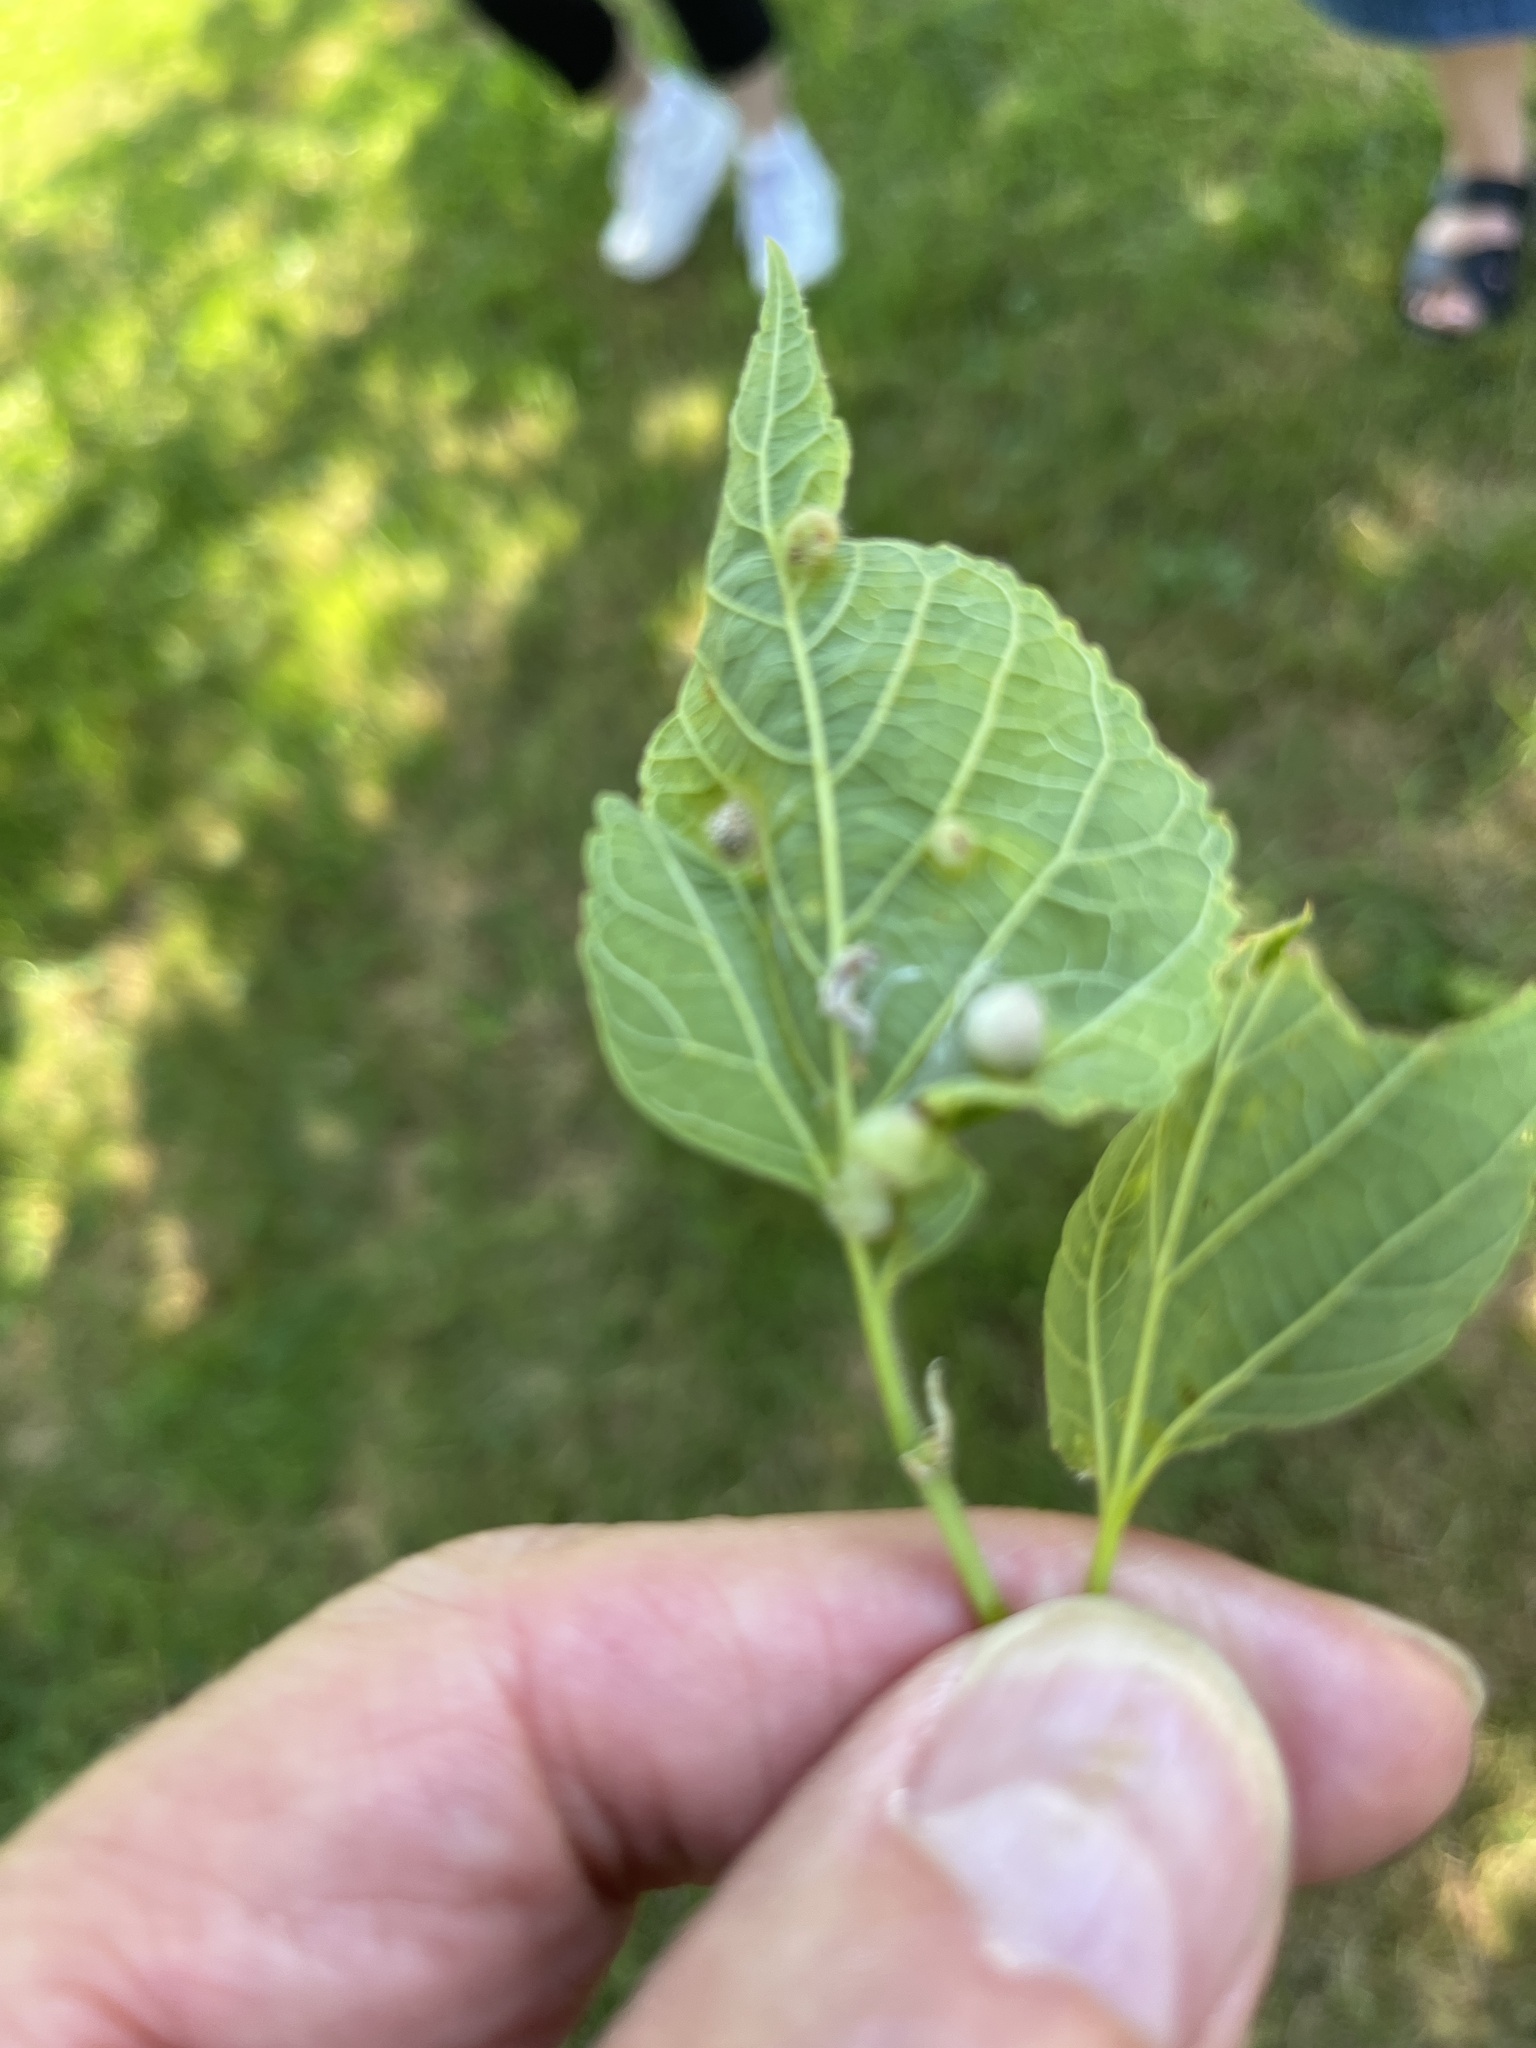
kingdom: Animalia
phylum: Arthropoda
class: Insecta
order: Hemiptera
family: Aphalaridae
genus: Pachypsylla
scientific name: Pachypsylla celtidismamma
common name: Hackberry nipplegall psyllid
